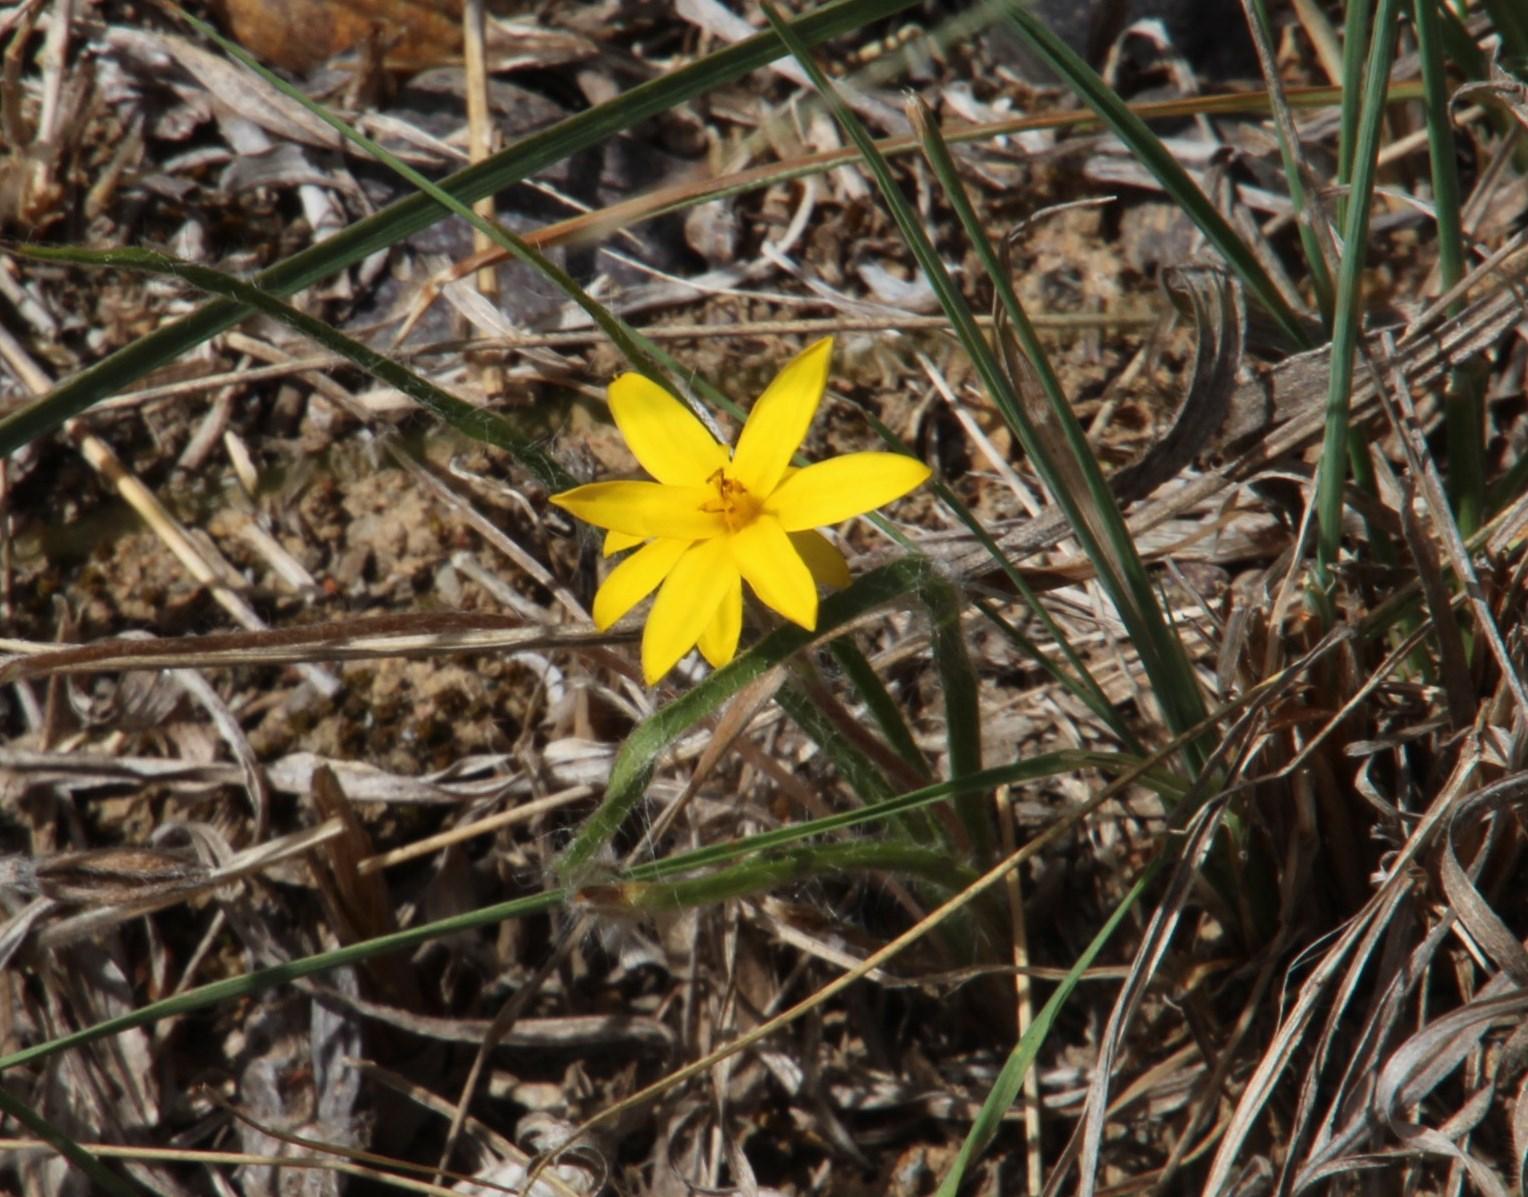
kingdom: Plantae
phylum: Tracheophyta
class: Liliopsida
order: Asparagales
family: Hypoxidaceae
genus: Hypoxis
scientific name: Hypoxis floccosa
